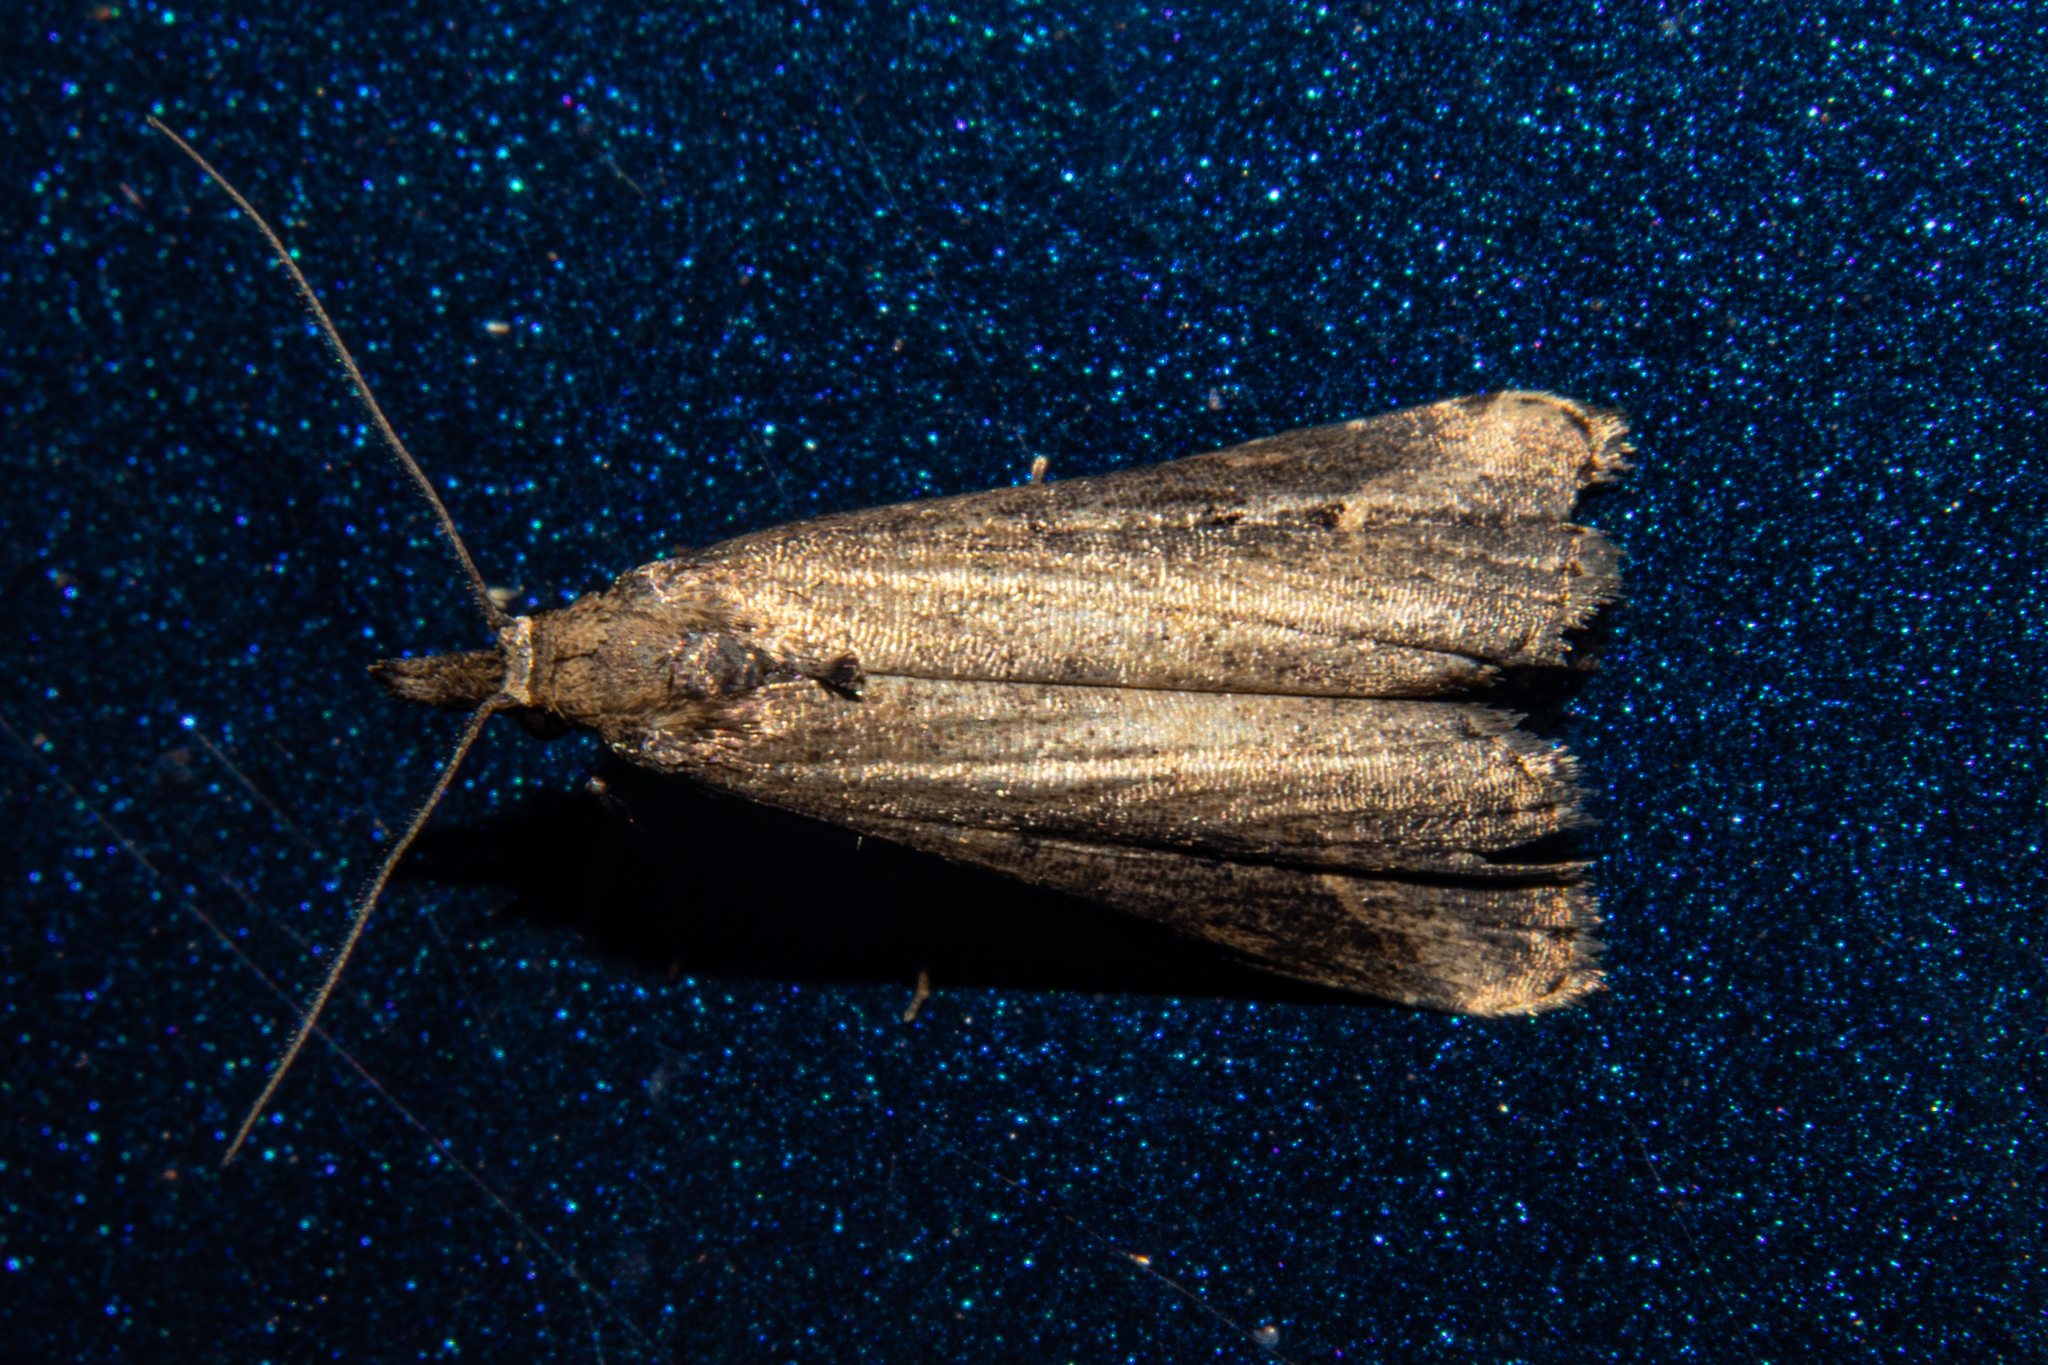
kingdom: Animalia
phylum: Arthropoda
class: Insecta
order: Lepidoptera
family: Erebidae
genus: Schrankia
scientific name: Schrankia costaestrigalis
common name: Pinion-streaked snout
